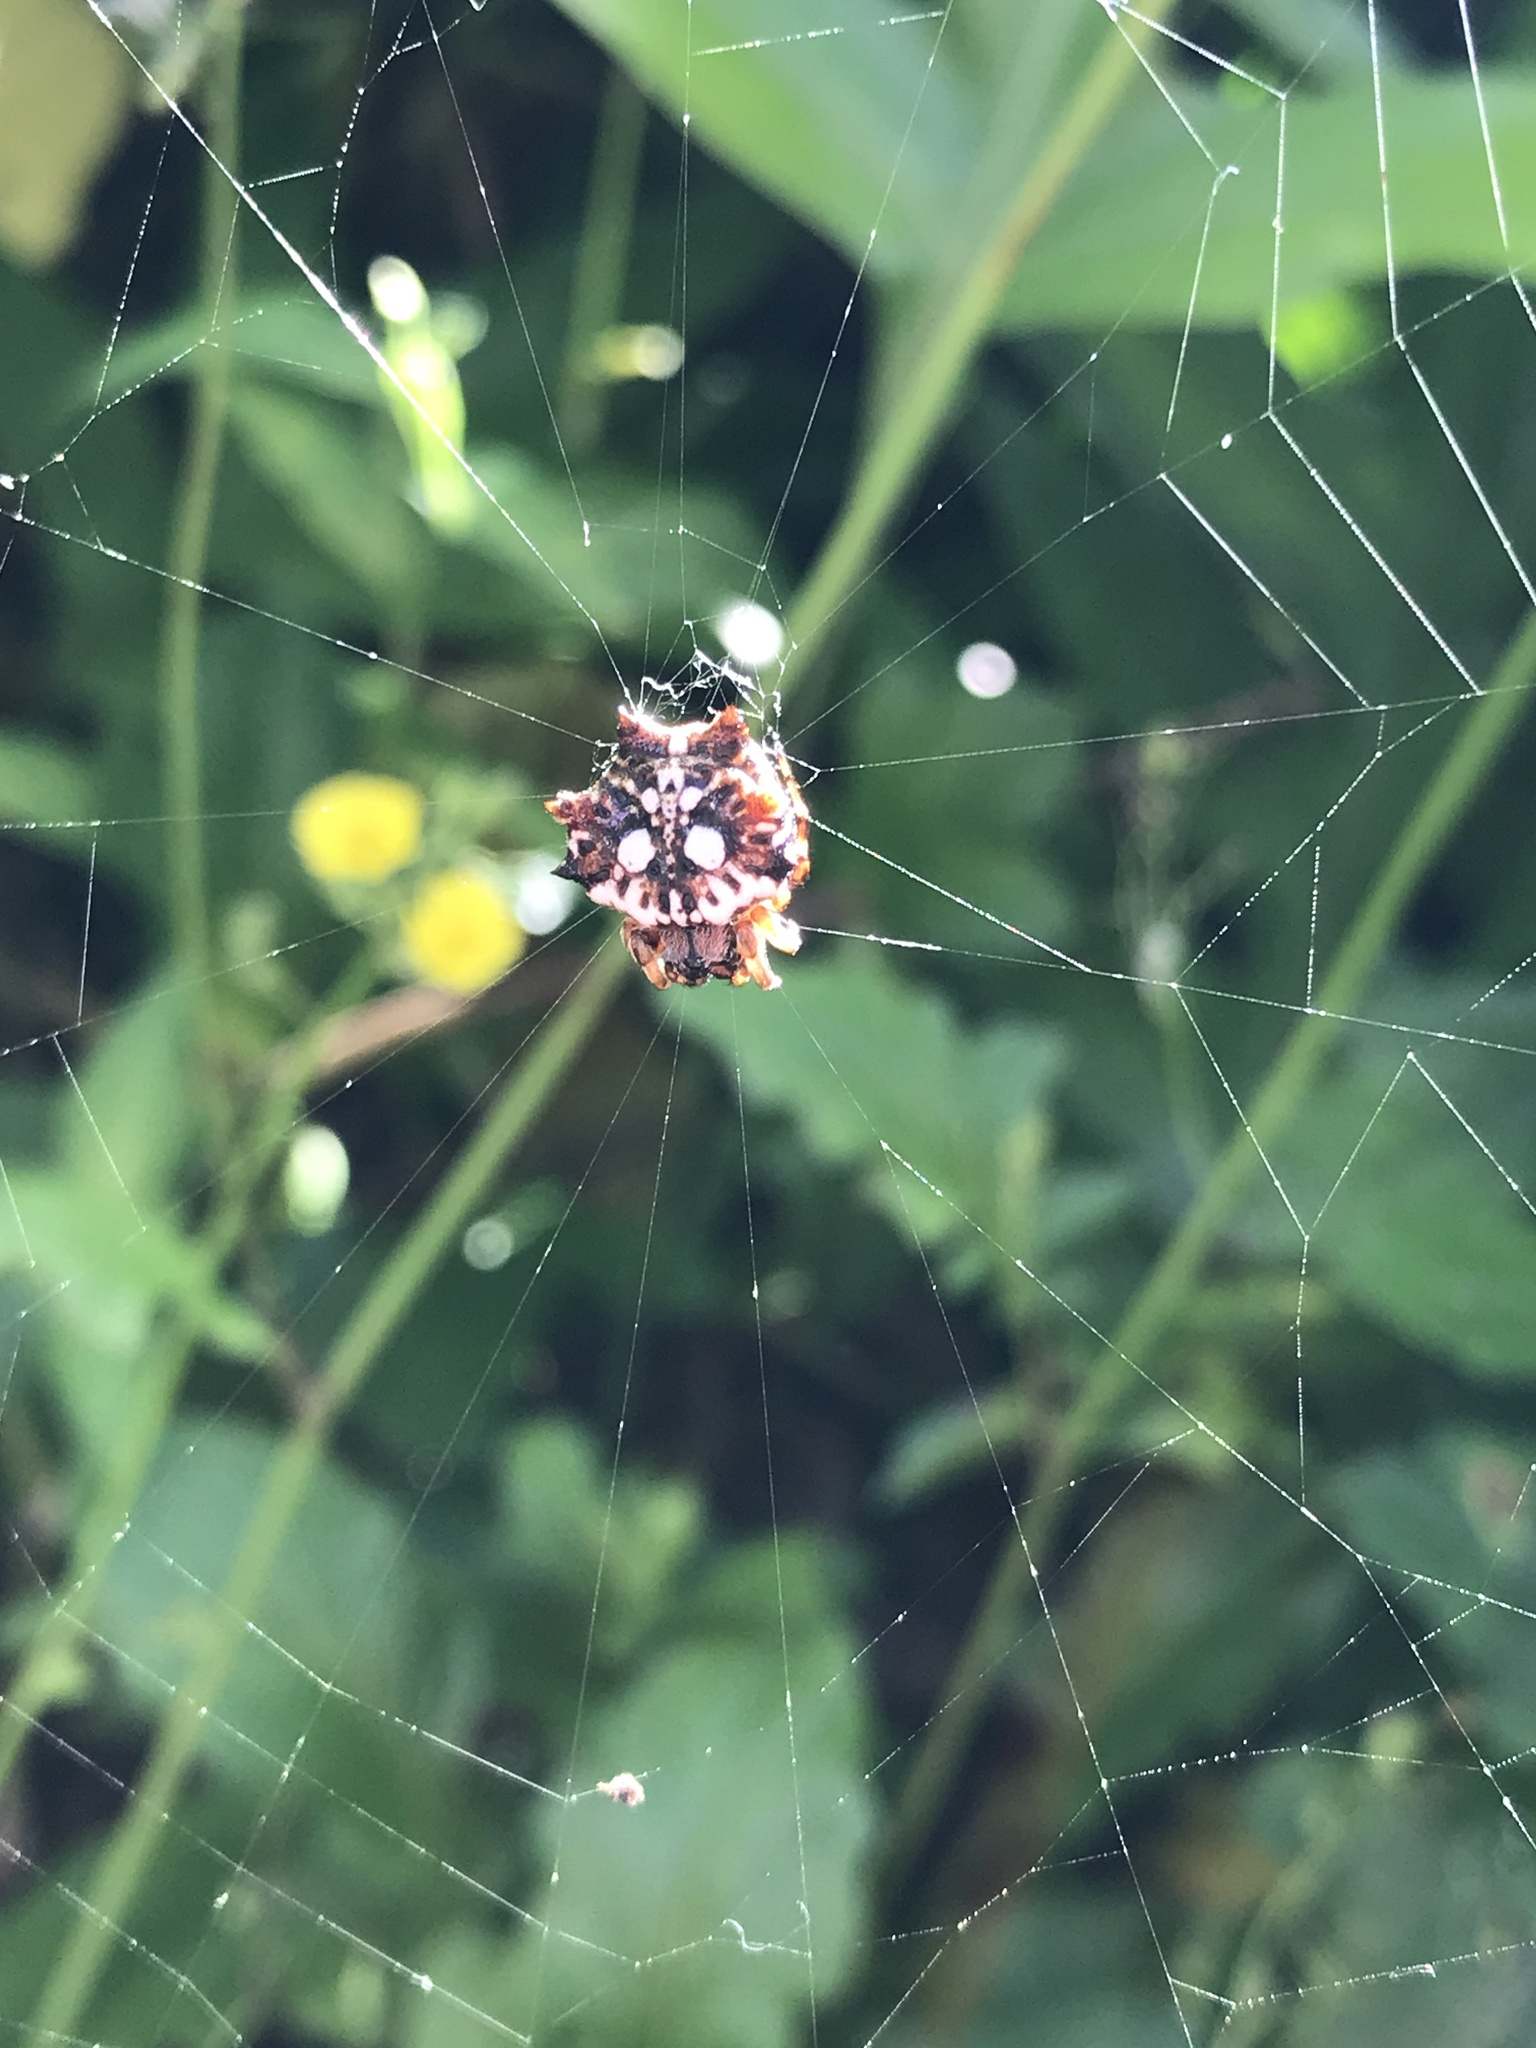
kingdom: Animalia
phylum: Arthropoda
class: Arachnida
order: Araneae
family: Araneidae
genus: Thelacantha
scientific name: Thelacantha brevispina
